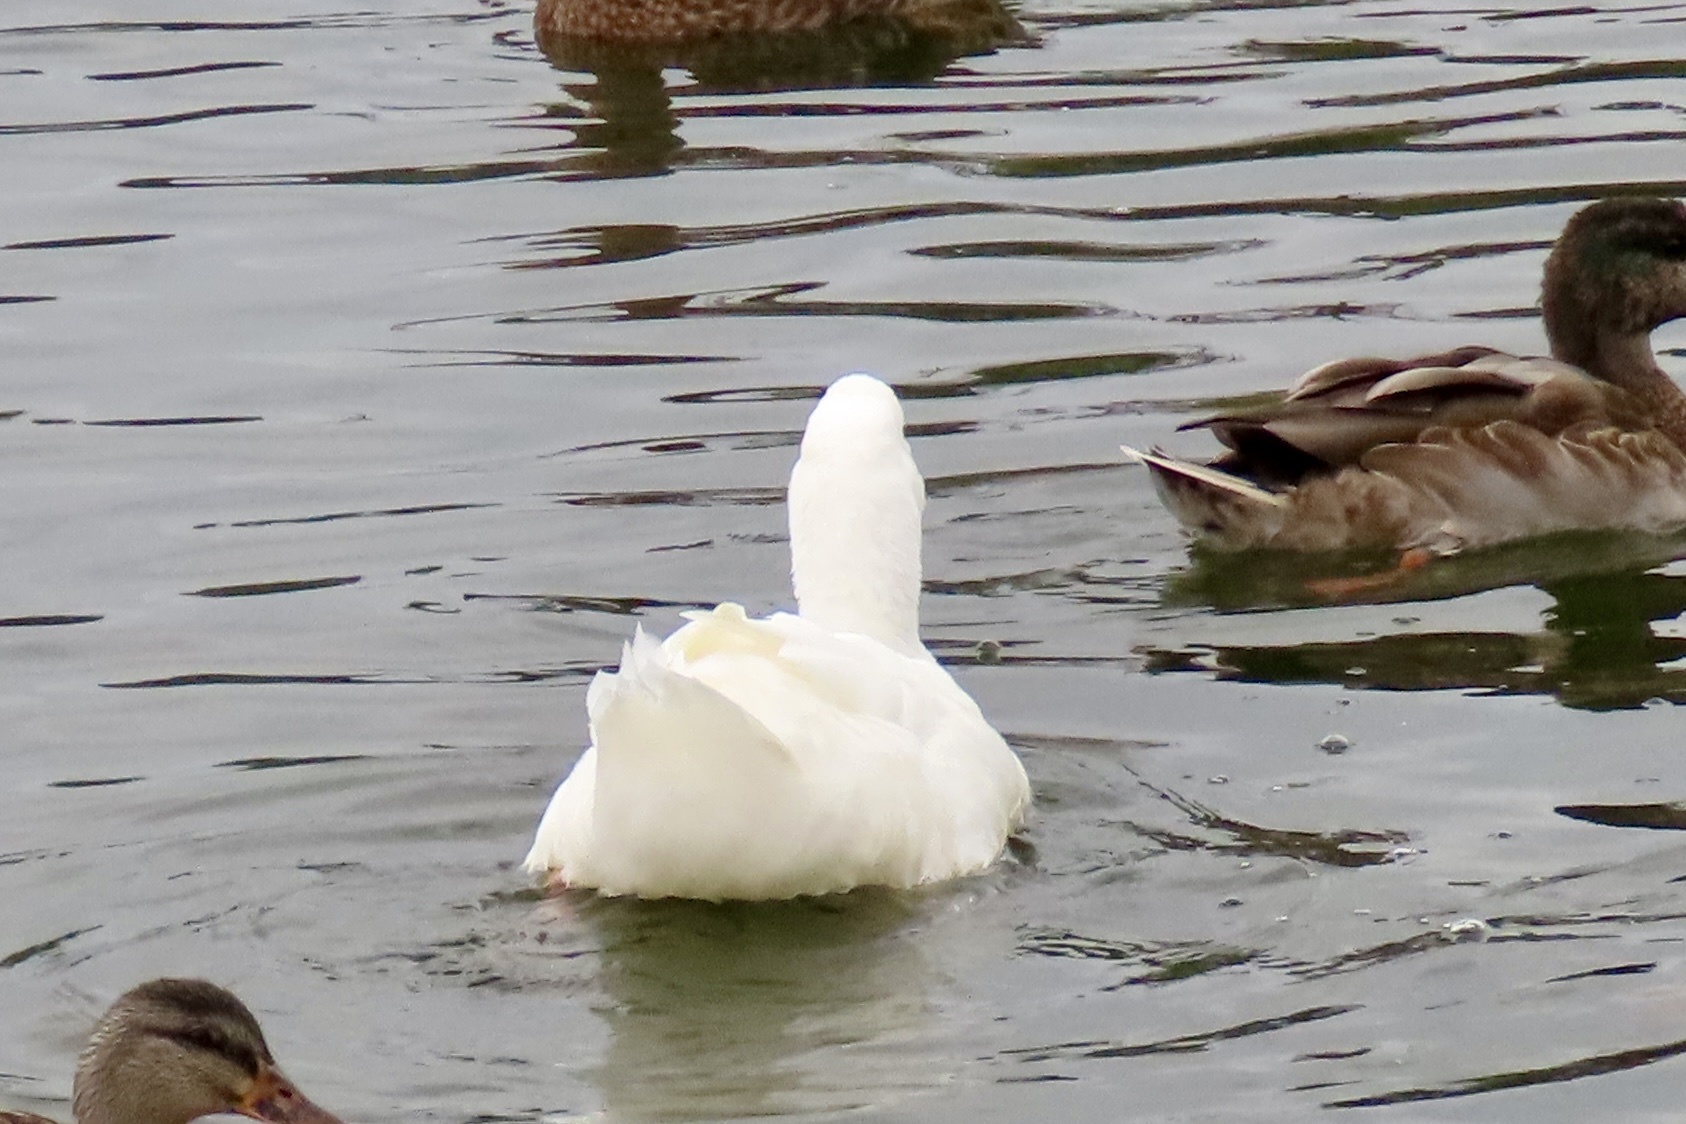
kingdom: Animalia
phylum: Chordata
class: Aves
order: Anseriformes
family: Anatidae
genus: Anas
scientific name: Anas platyrhynchos
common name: Mallard
